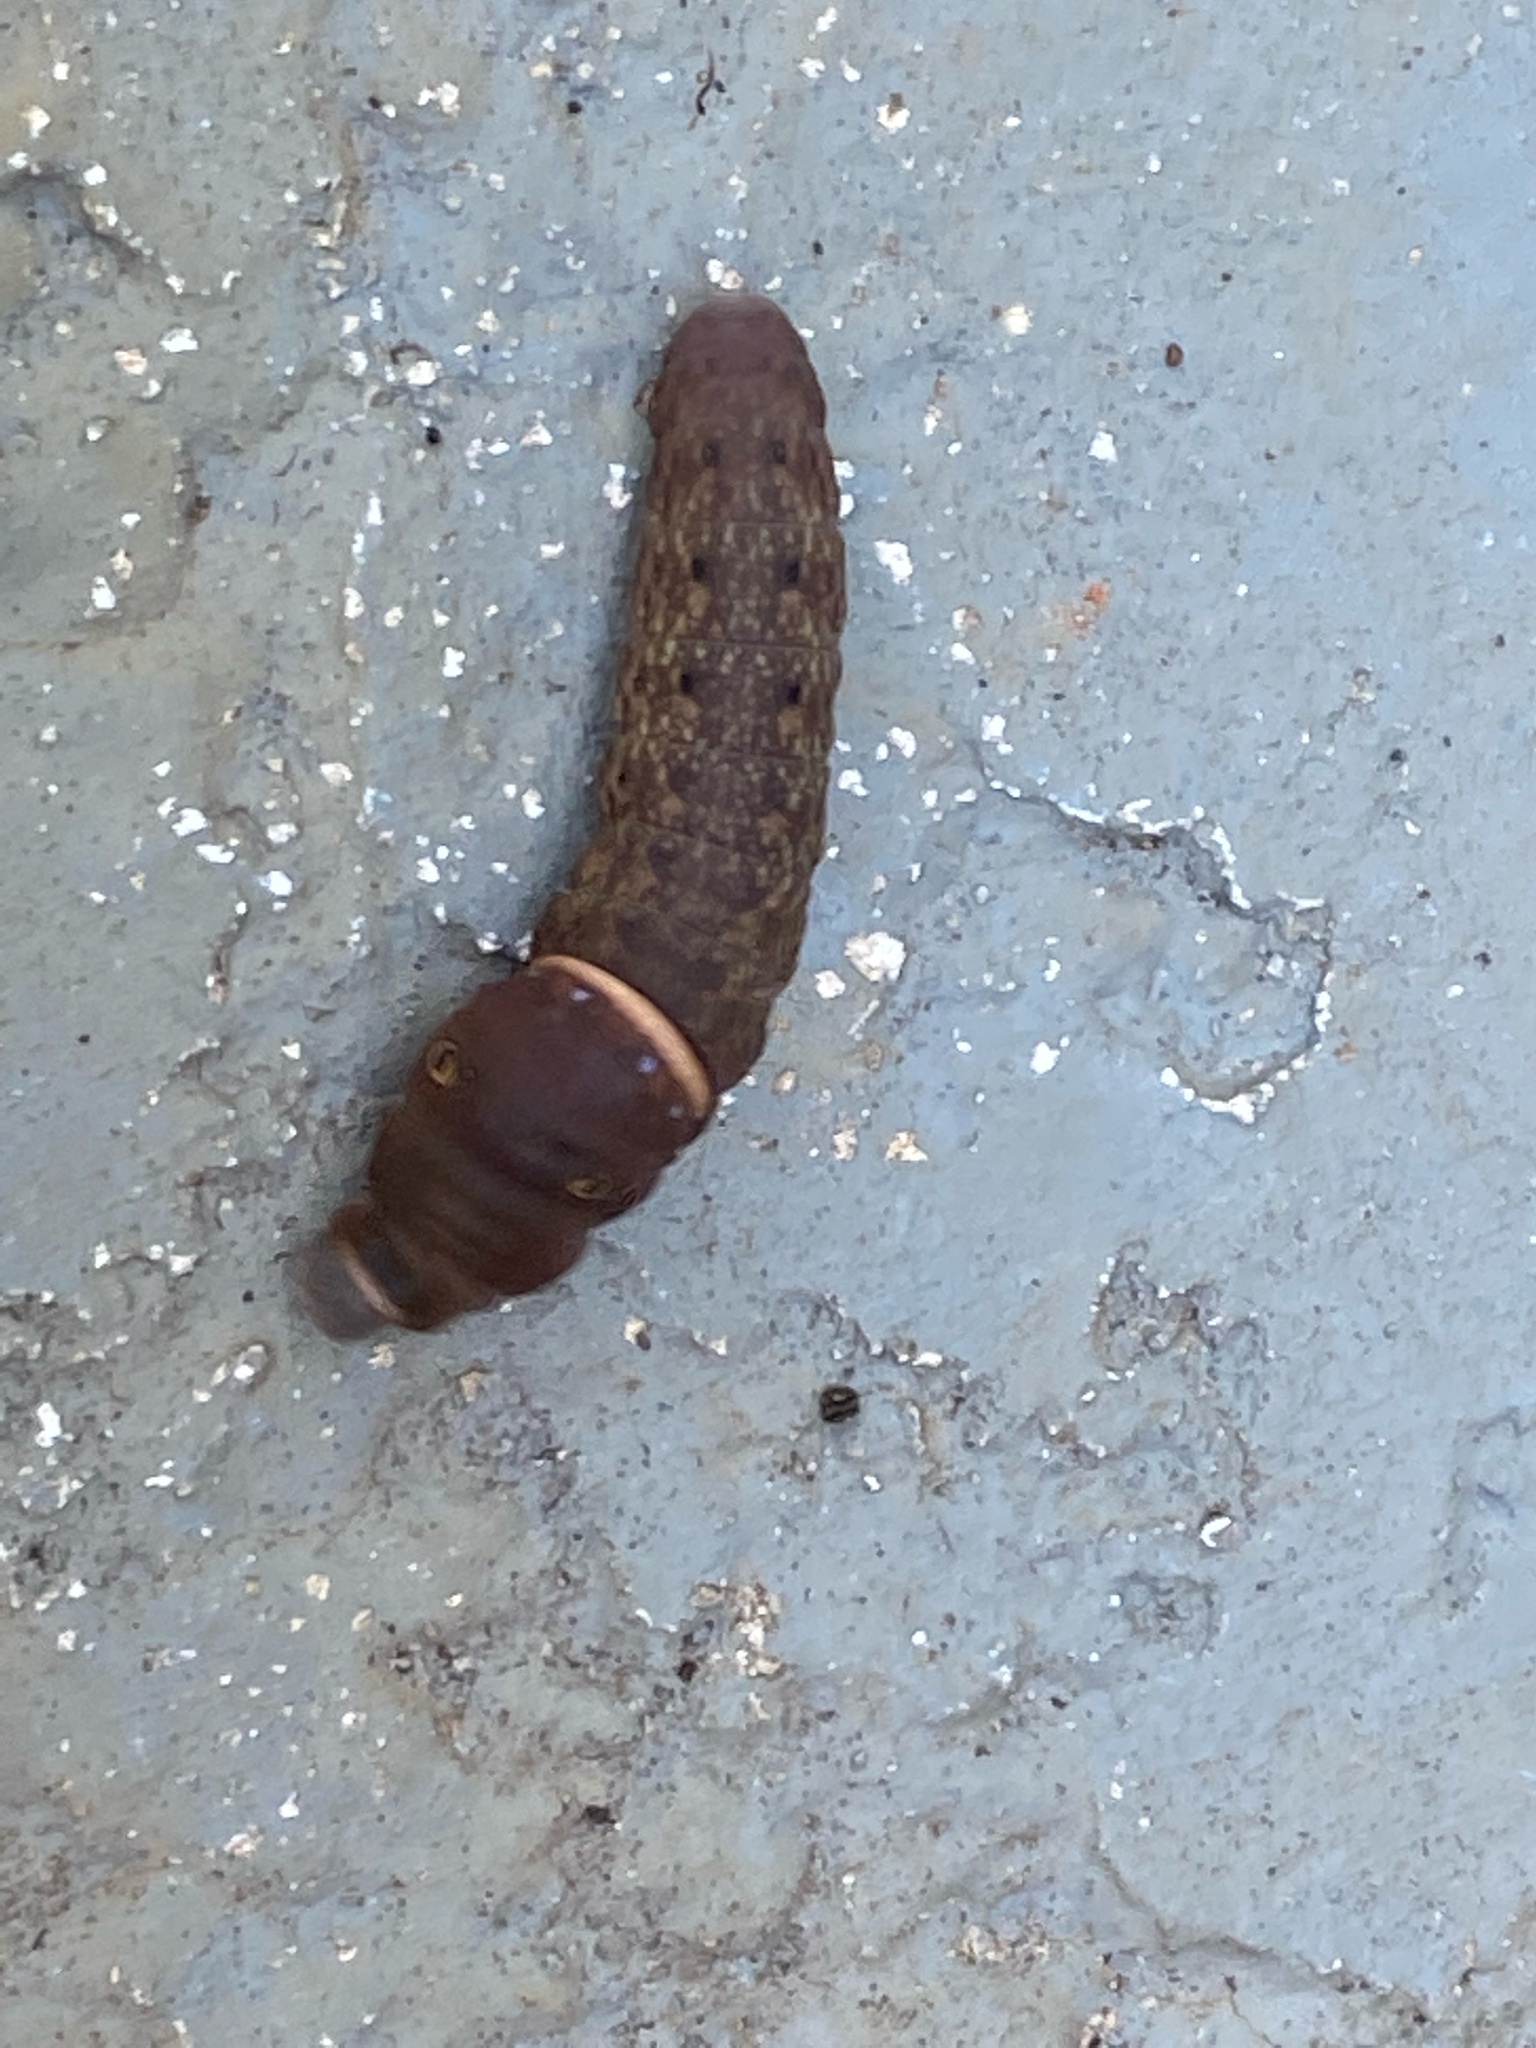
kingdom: Animalia
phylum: Arthropoda
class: Insecta
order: Lepidoptera
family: Papilionidae
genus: Papilio
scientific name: Papilio glaucus
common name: Tiger swallowtail
